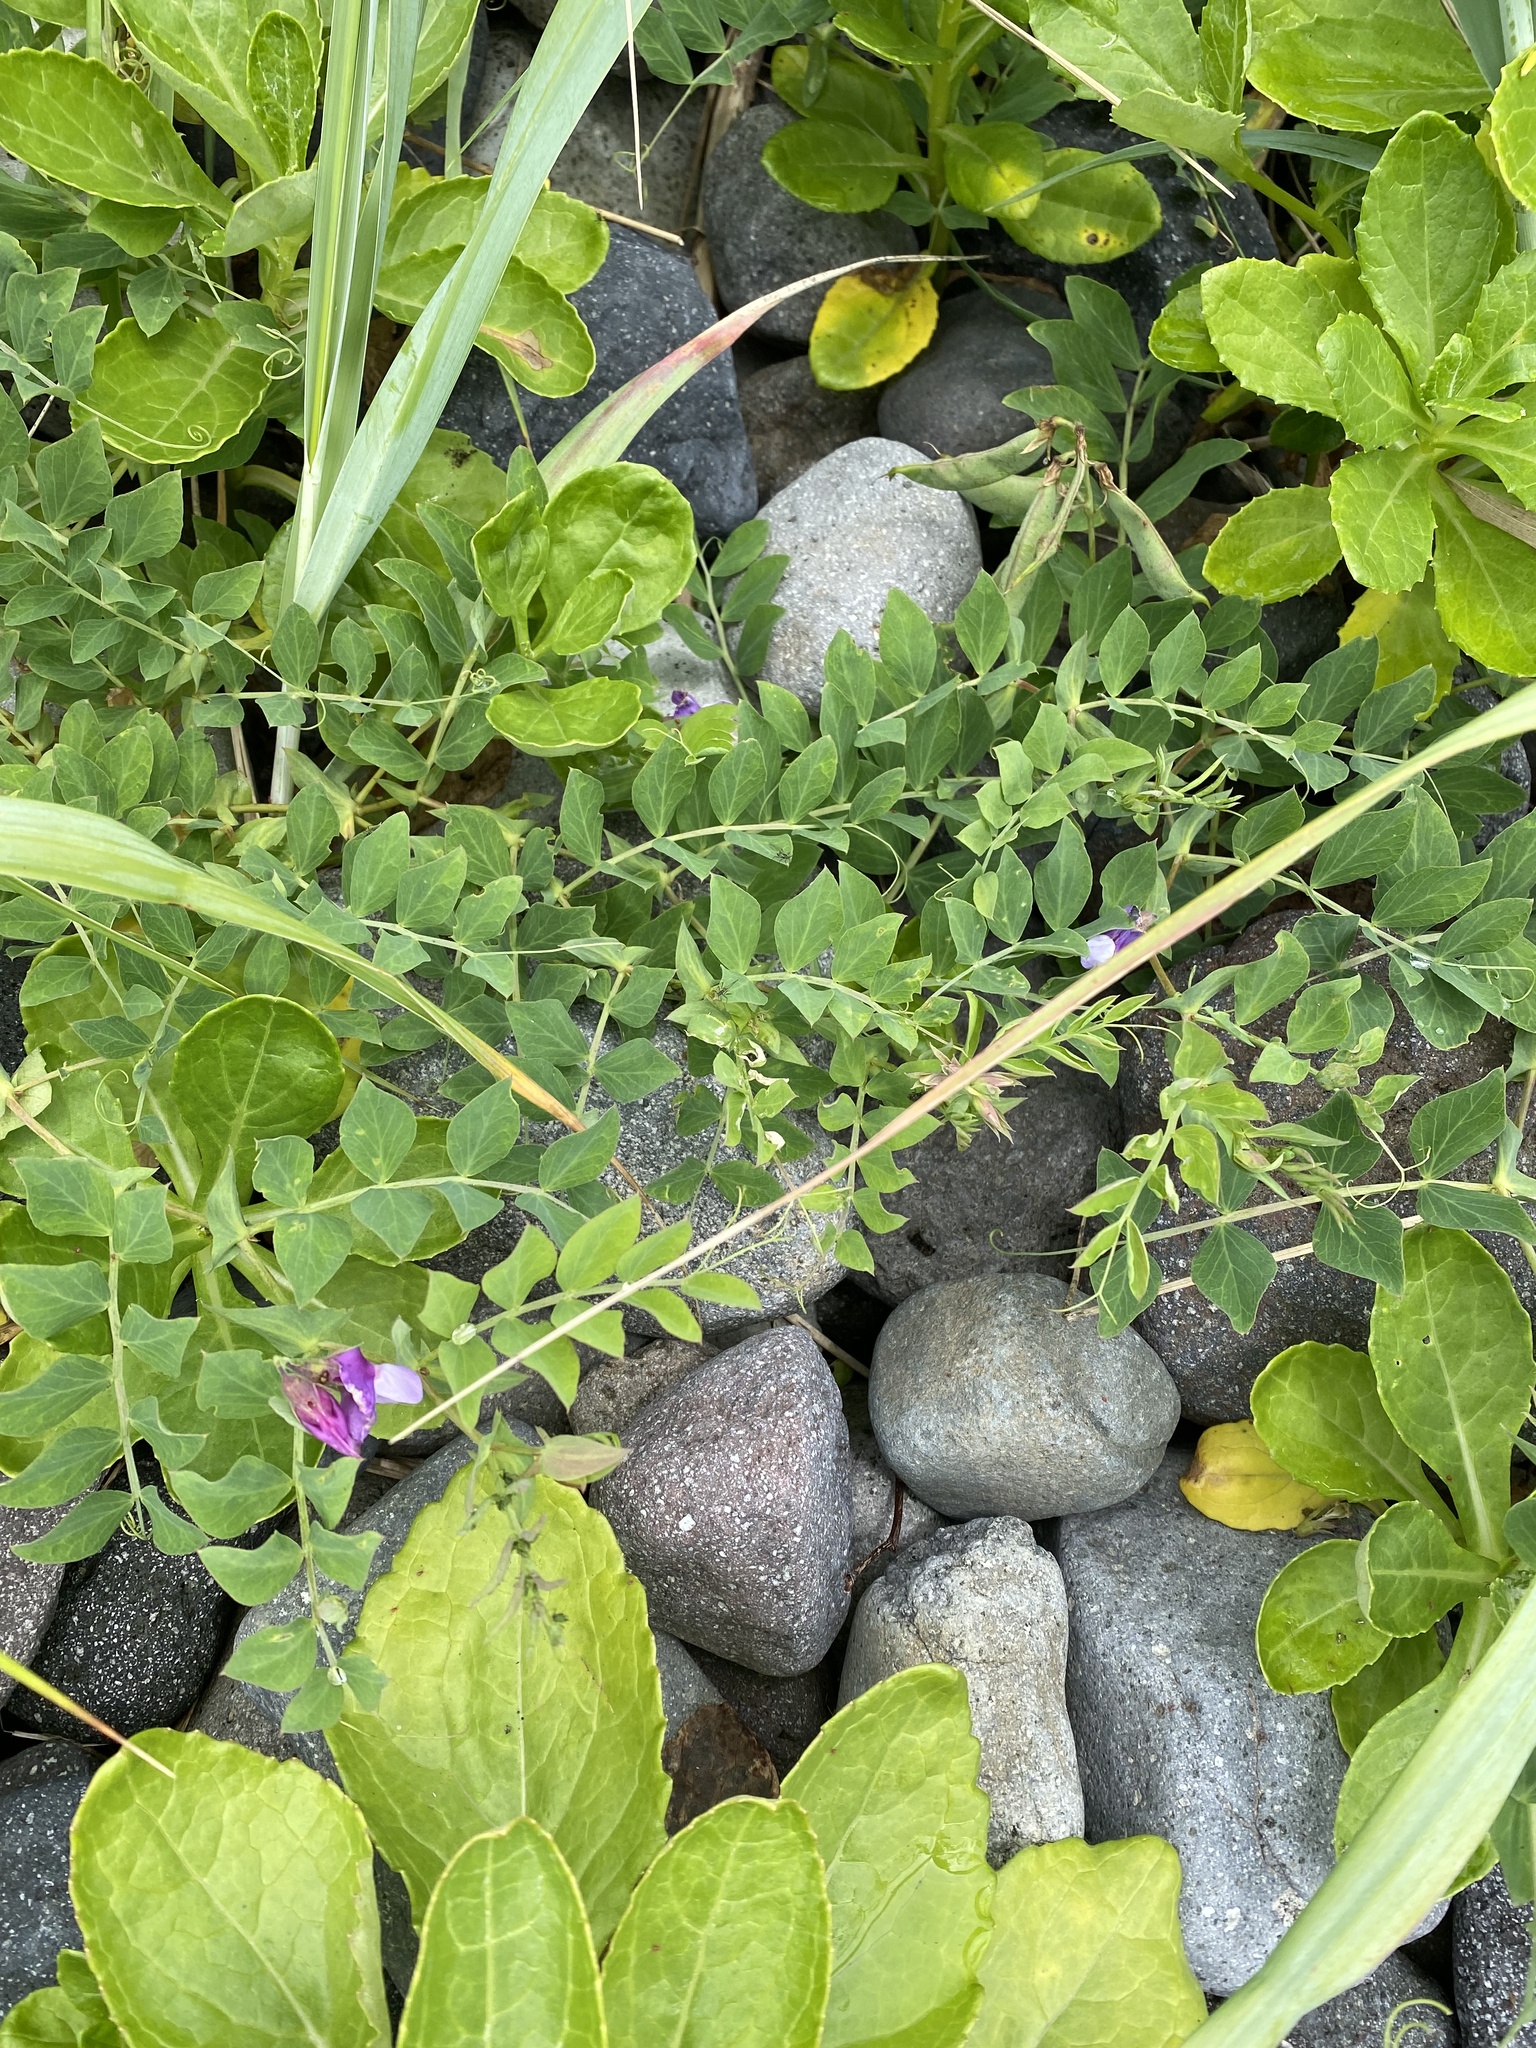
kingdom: Plantae
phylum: Tracheophyta
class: Magnoliopsida
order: Fabales
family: Fabaceae
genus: Lathyrus
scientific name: Lathyrus japonicus
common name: Sea pea
